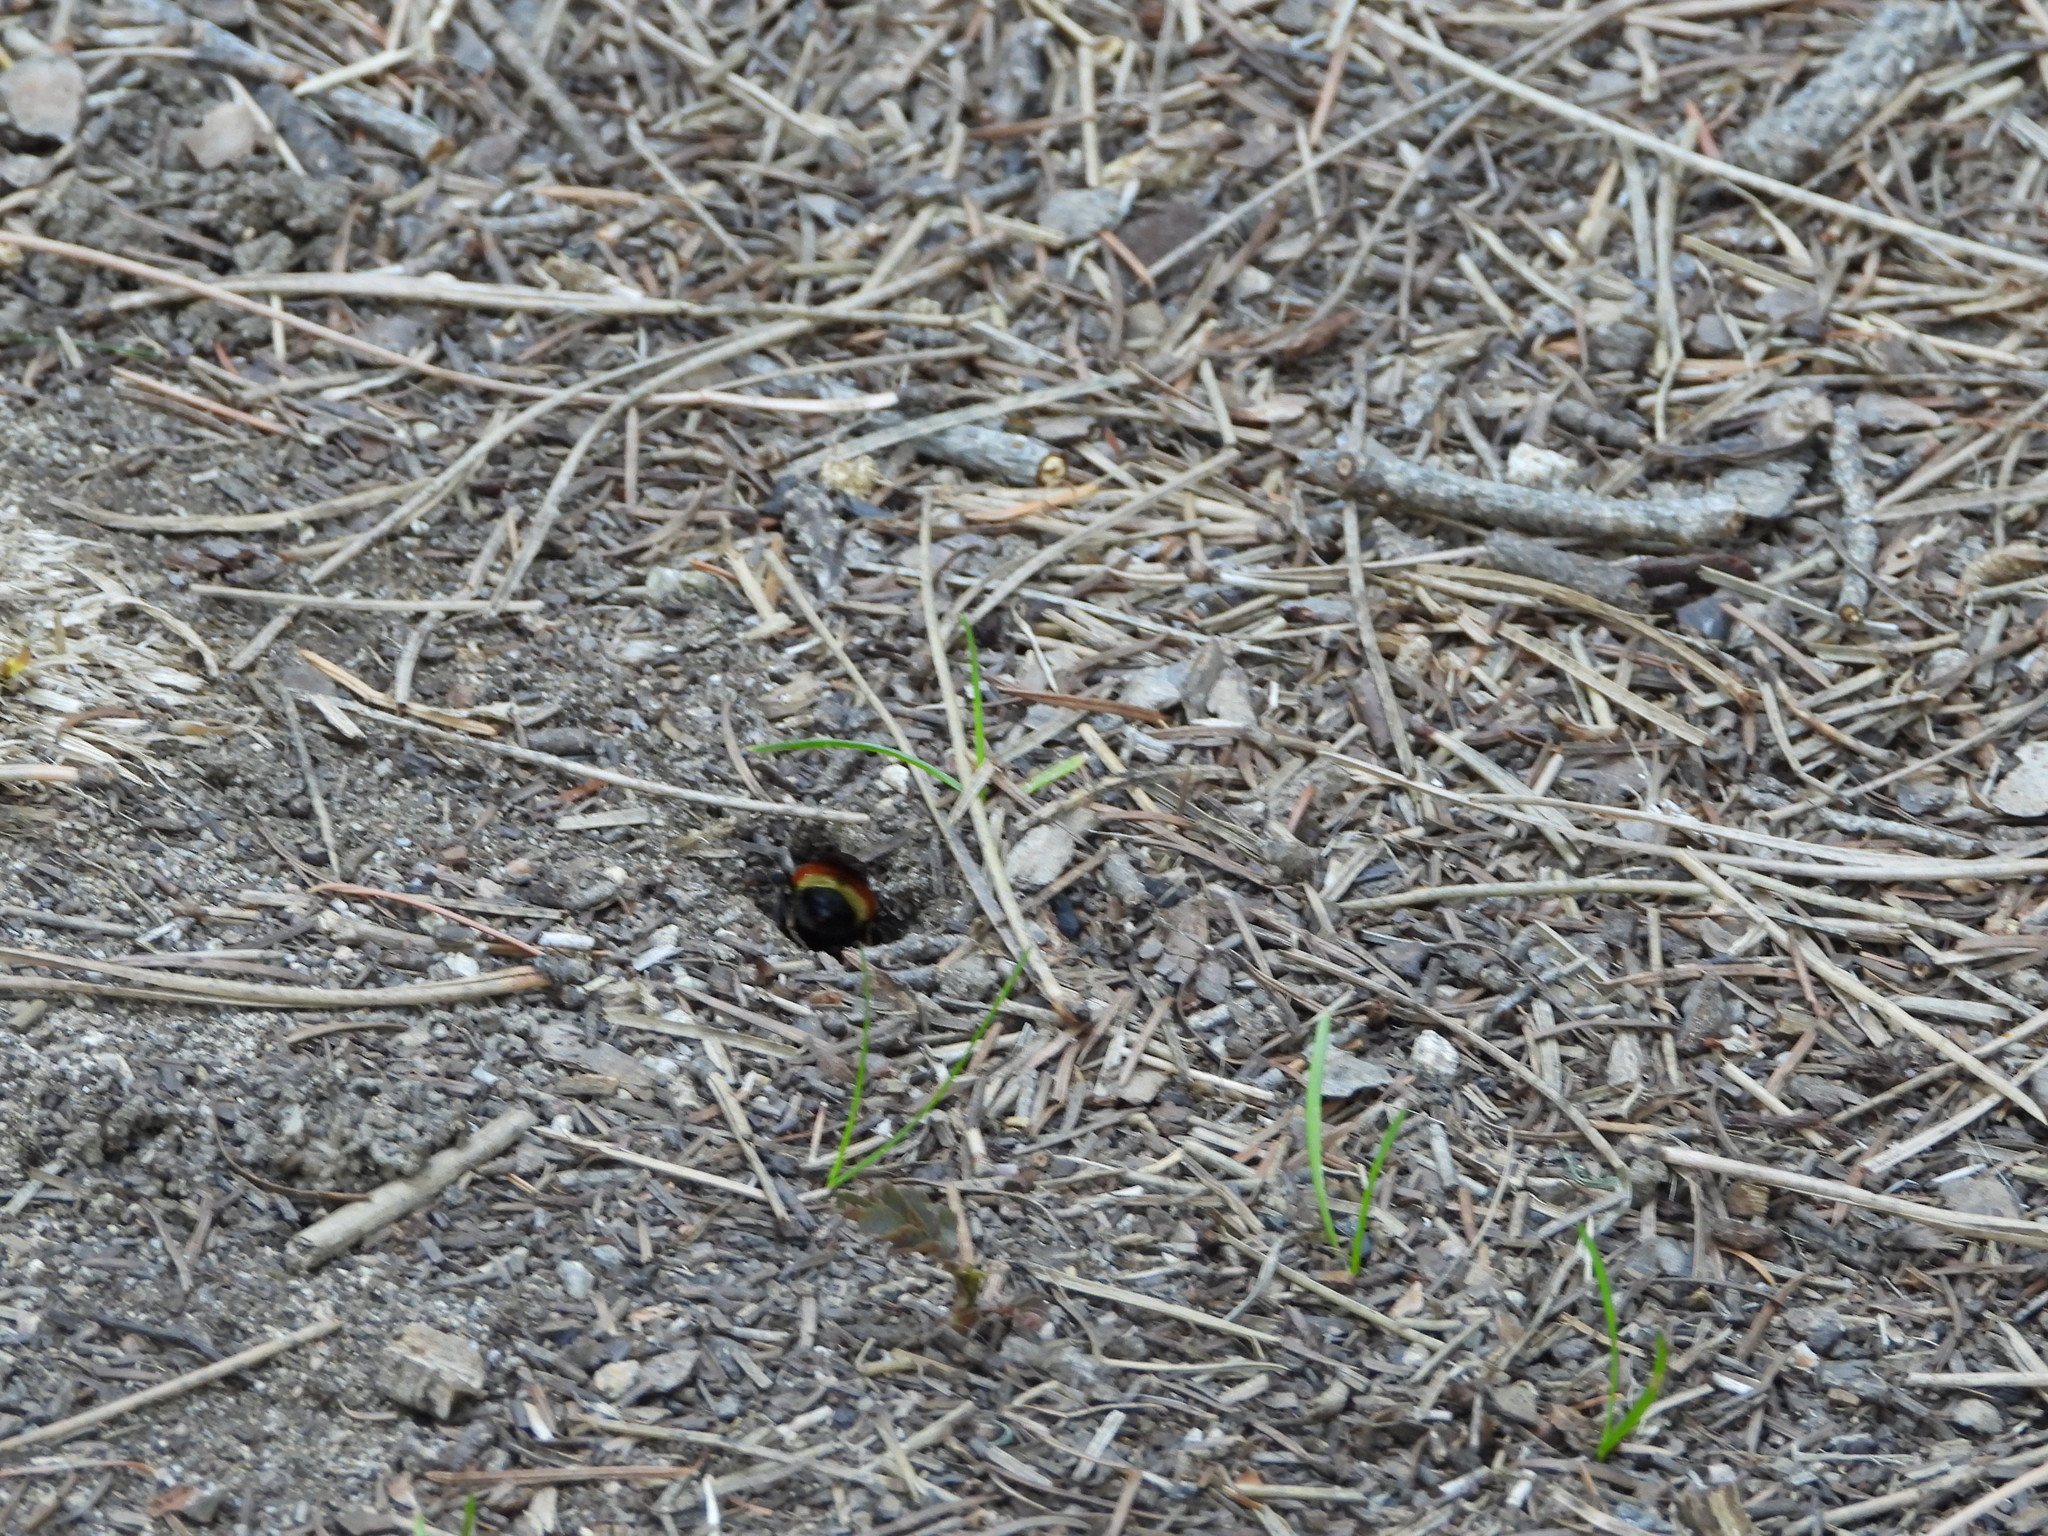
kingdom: Animalia
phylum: Arthropoda
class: Insecta
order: Hymenoptera
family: Apidae
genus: Bombus
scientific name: Bombus huntii
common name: Hunt bumble bee
